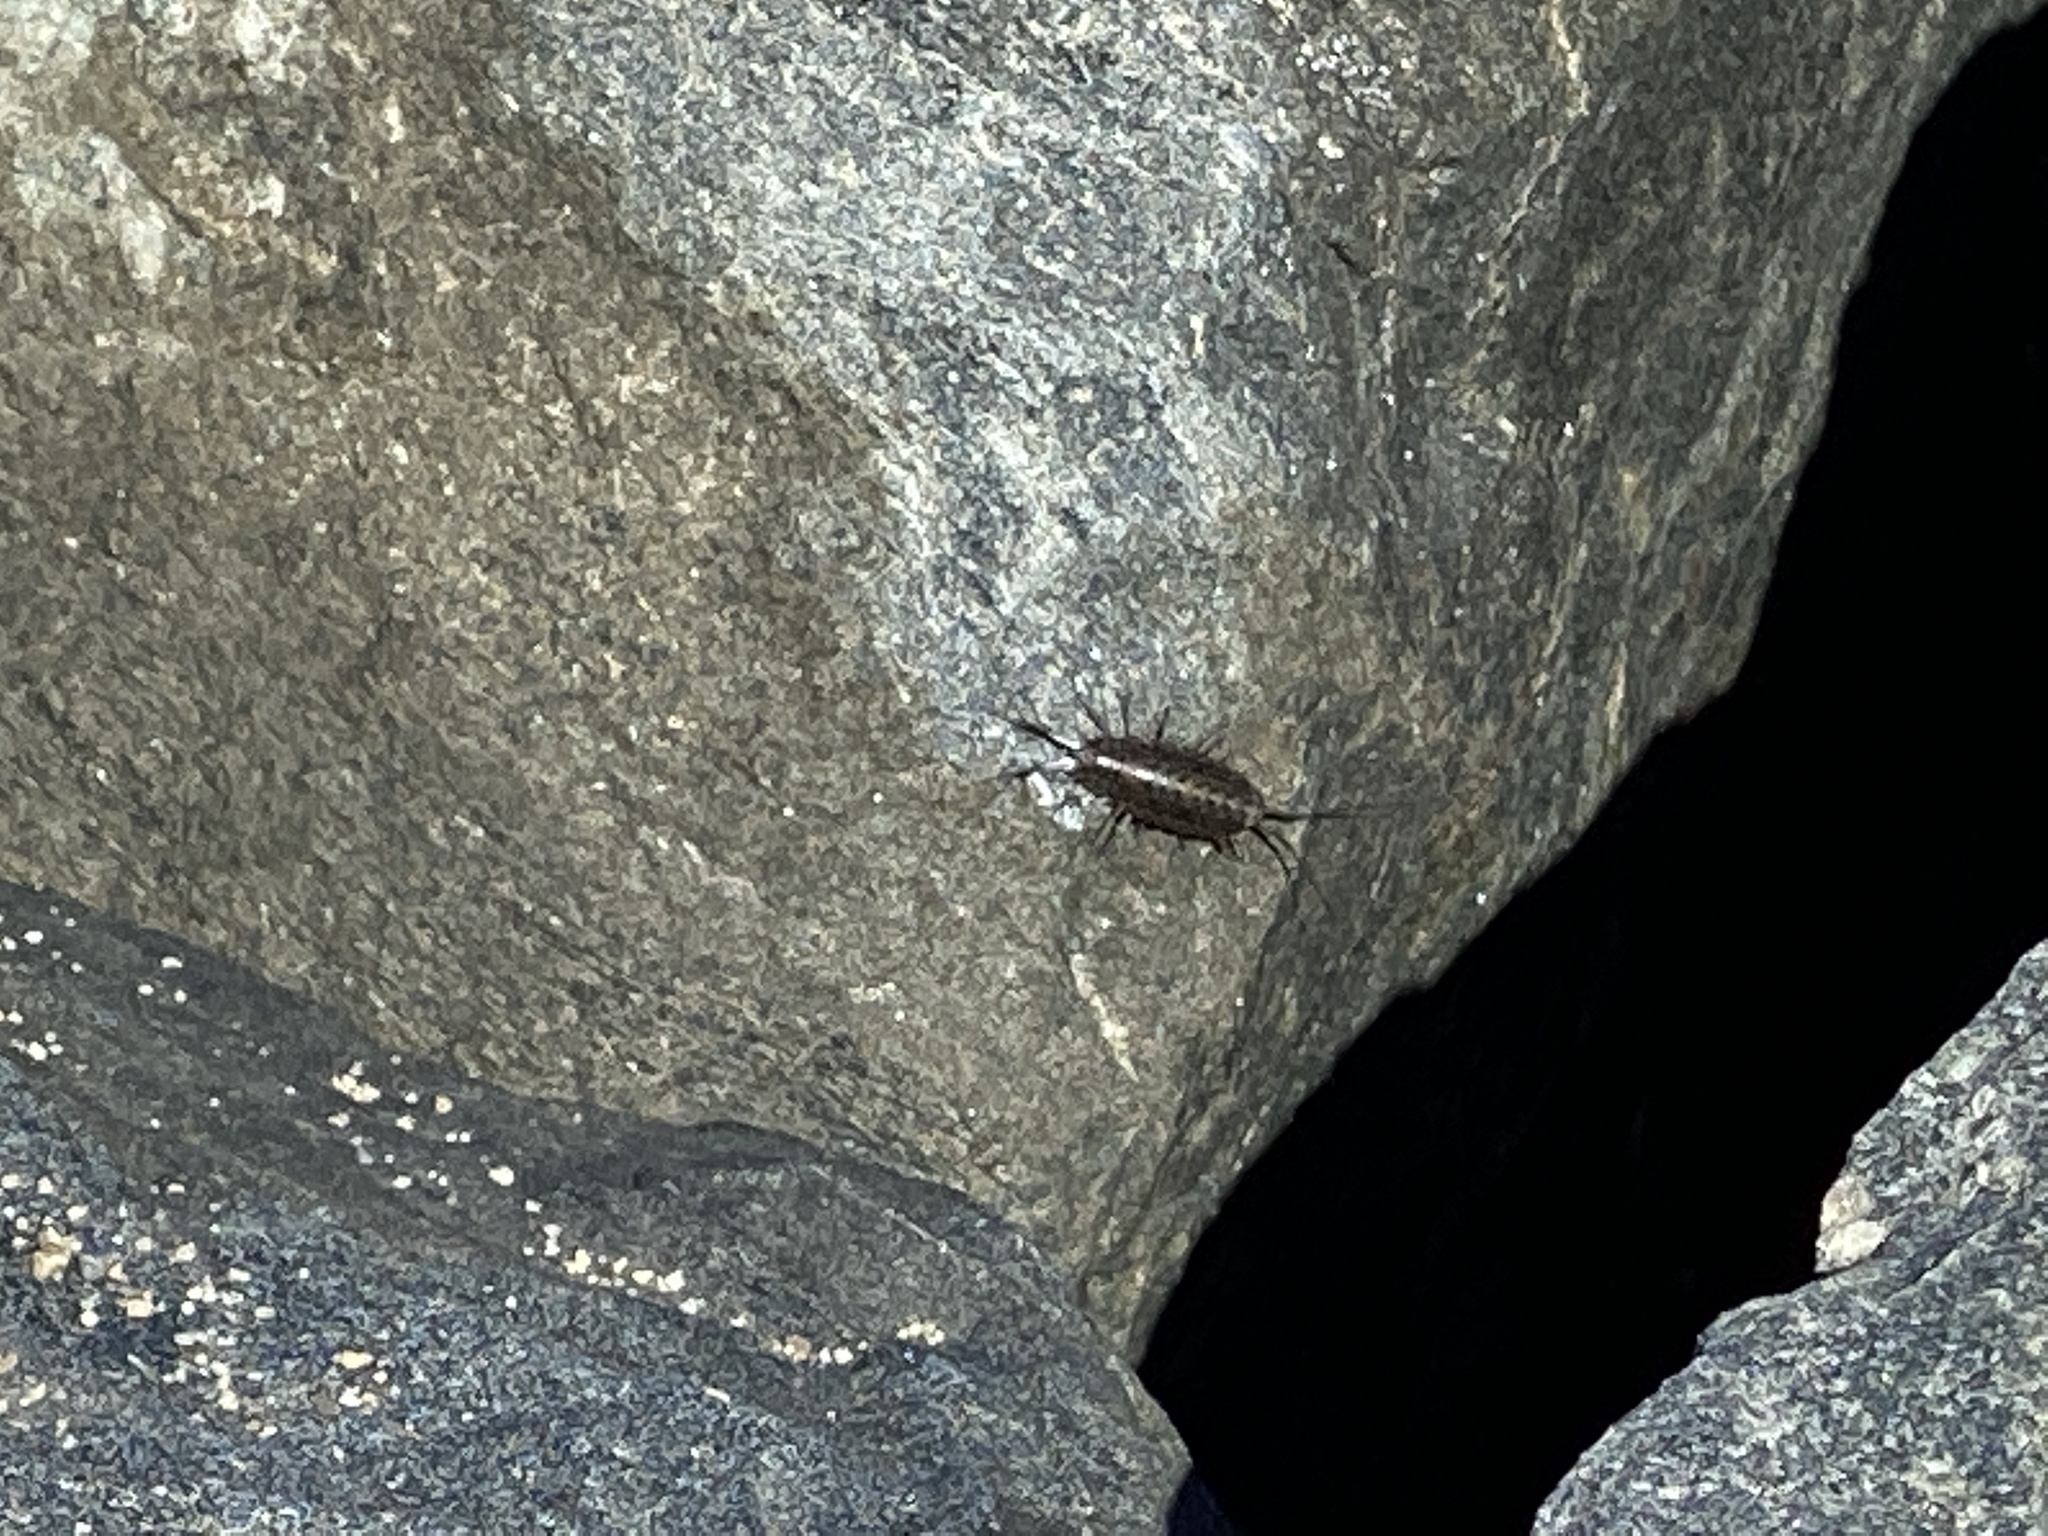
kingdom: Animalia
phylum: Arthropoda
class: Malacostraca
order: Isopoda
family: Ligiidae
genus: Ligia
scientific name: Ligia exotica
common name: Wharf roach
